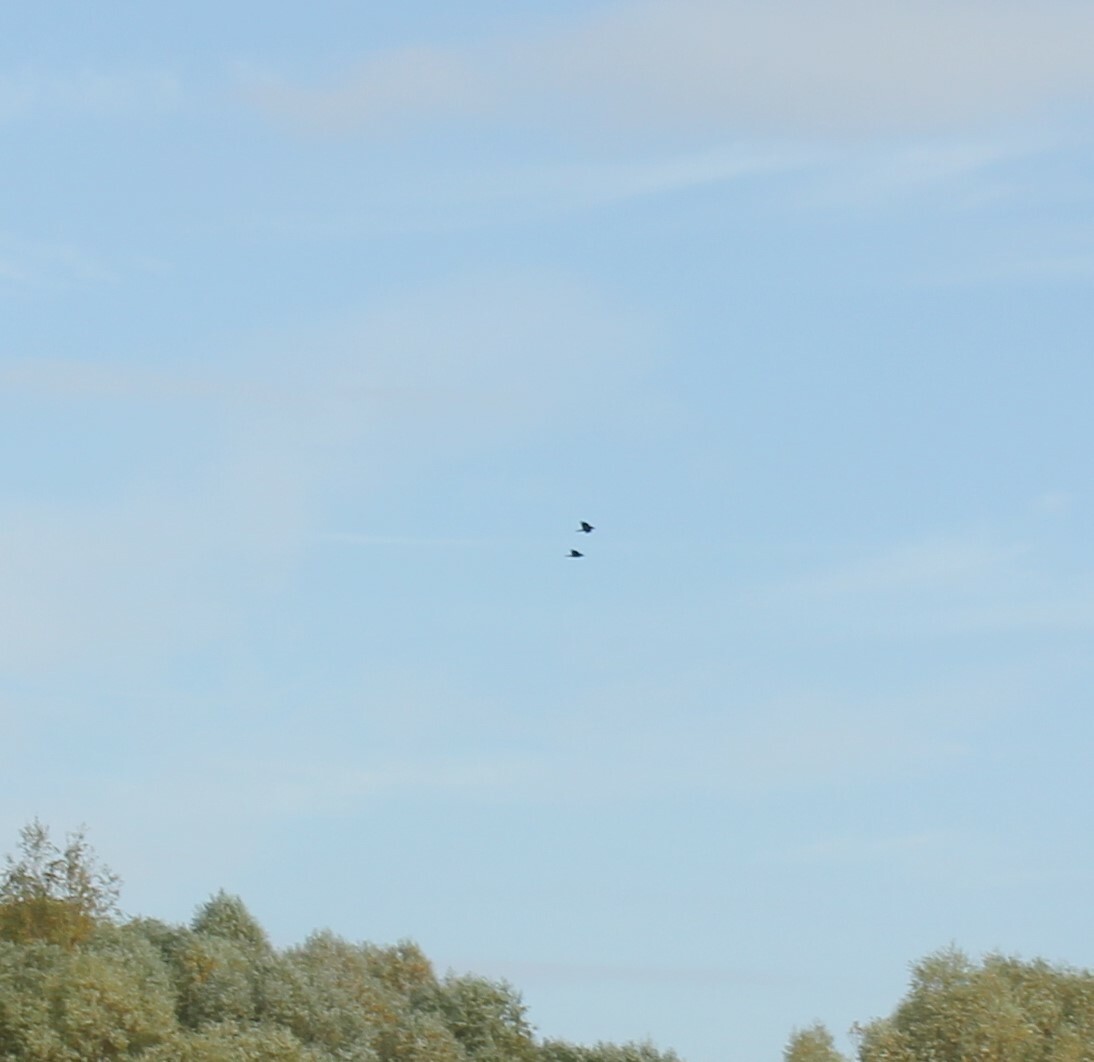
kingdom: Animalia
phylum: Chordata
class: Aves
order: Passeriformes
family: Corvidae
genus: Corvus
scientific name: Corvus corax
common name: Common raven
